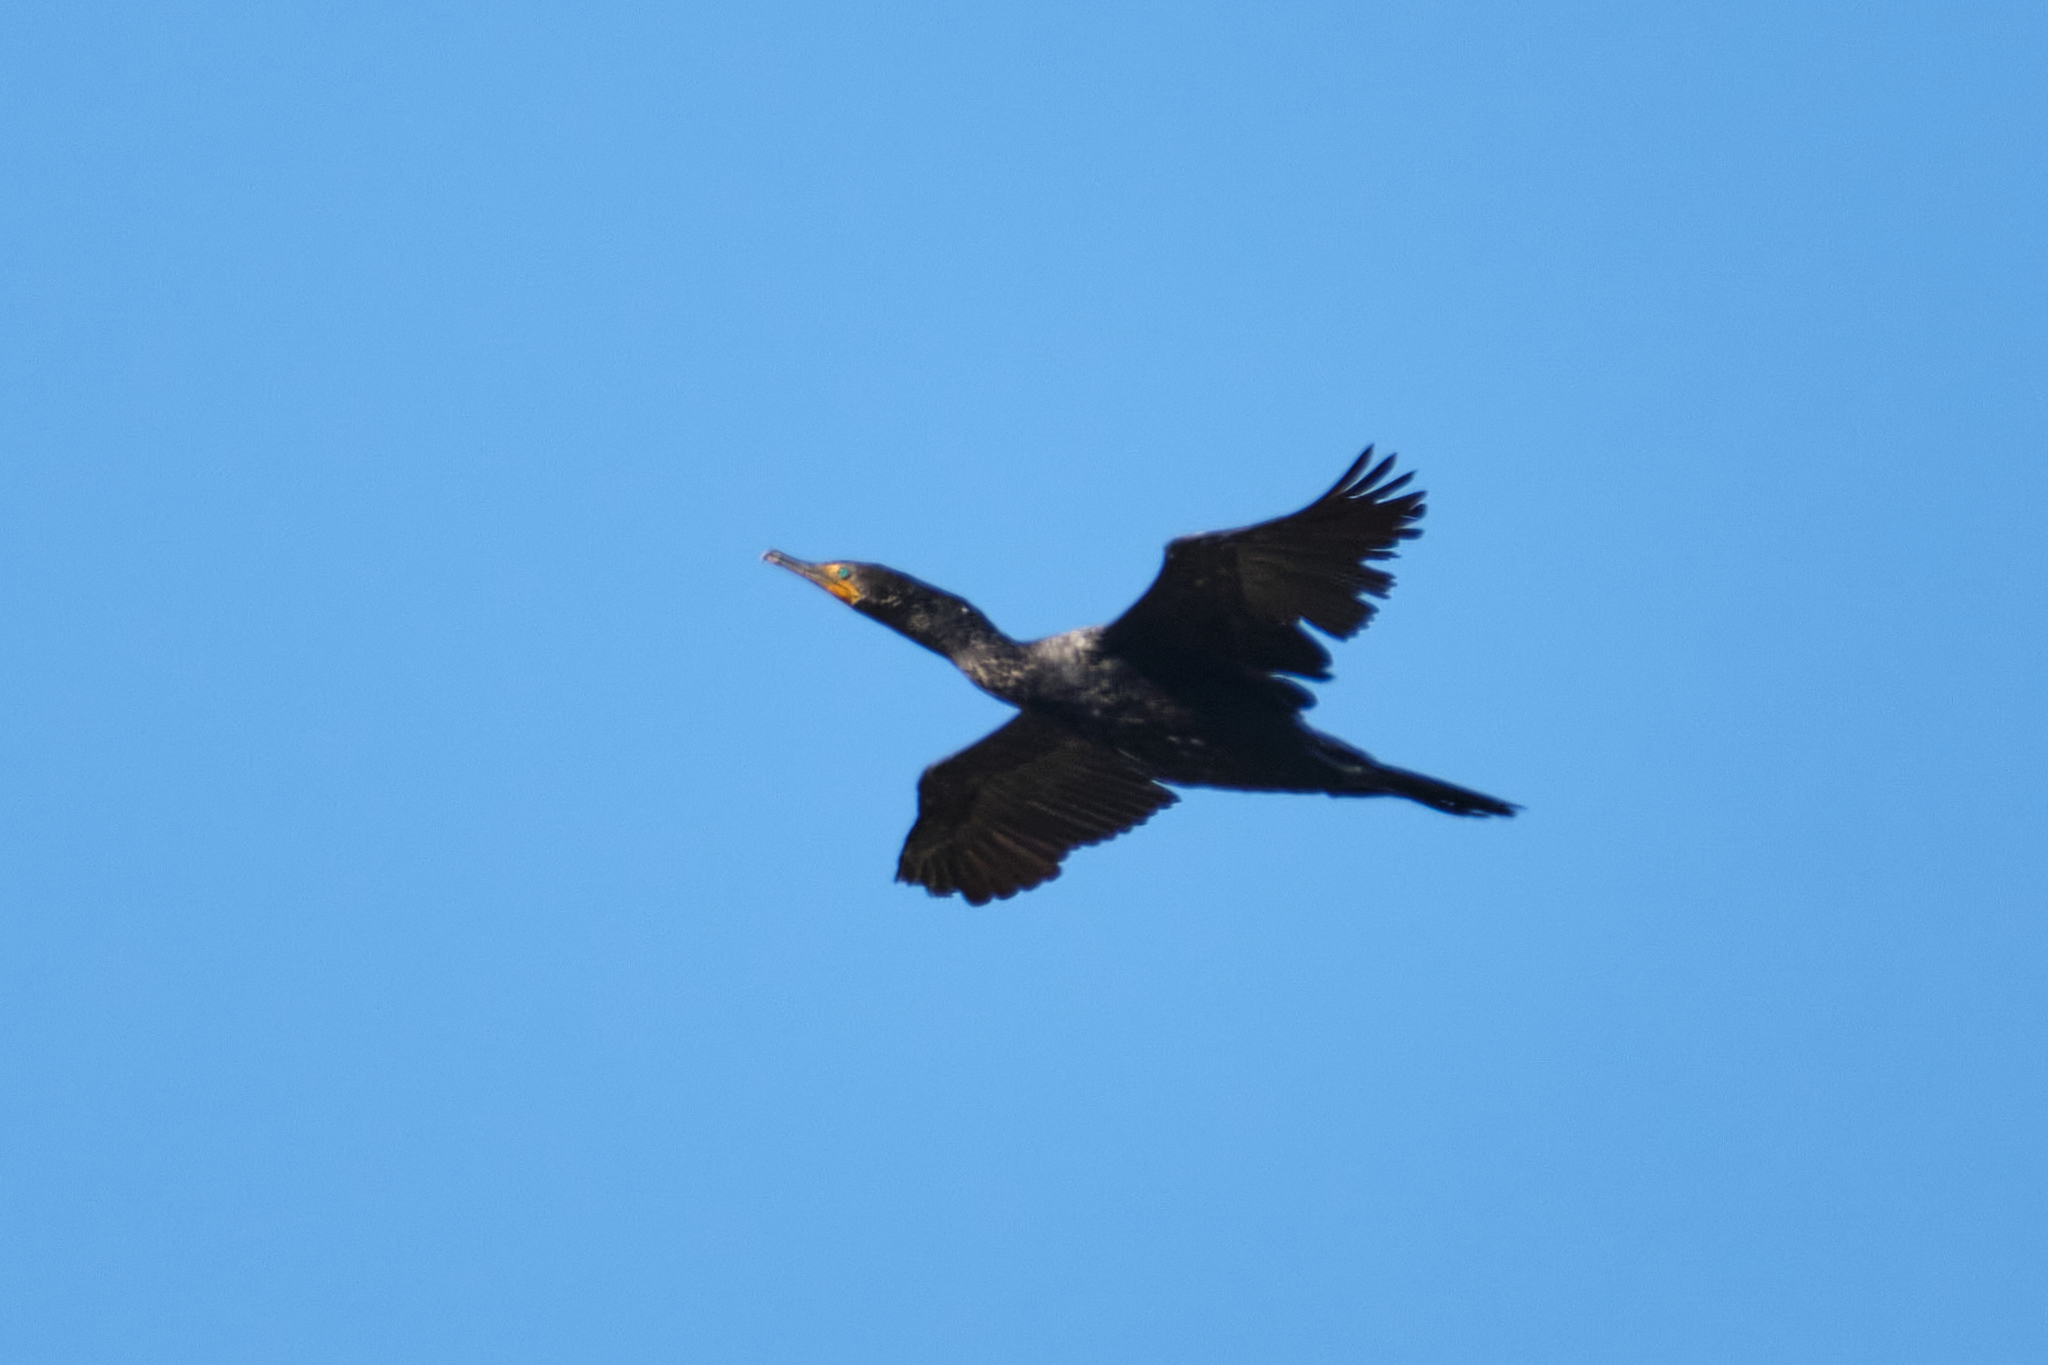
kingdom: Animalia
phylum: Chordata
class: Aves
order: Suliformes
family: Phalacrocoracidae
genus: Phalacrocorax
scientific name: Phalacrocorax auritus
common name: Double-crested cormorant
